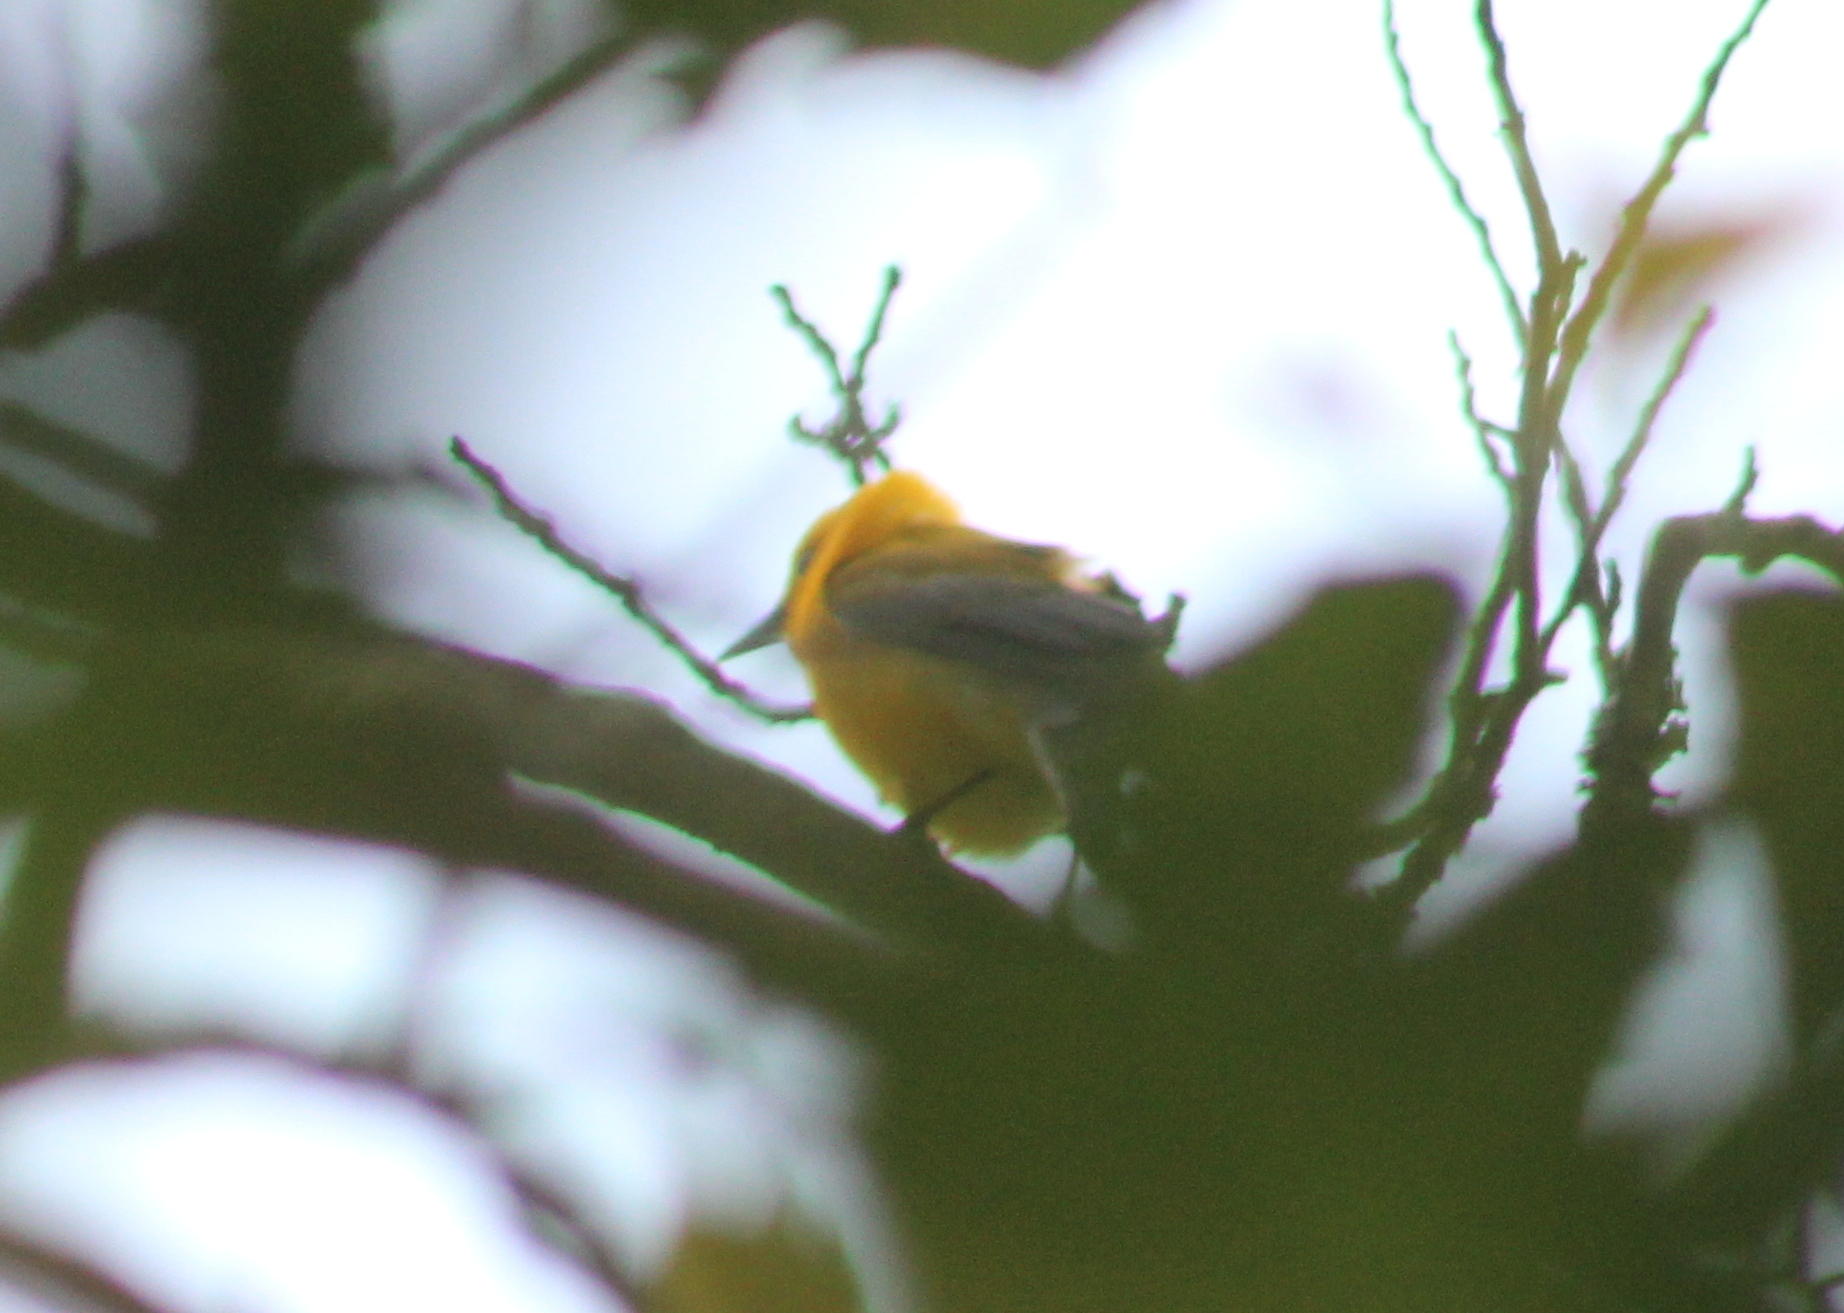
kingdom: Animalia
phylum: Chordata
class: Aves
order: Passeriformes
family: Parulidae
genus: Protonotaria
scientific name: Protonotaria citrea
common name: Prothonotary warbler
